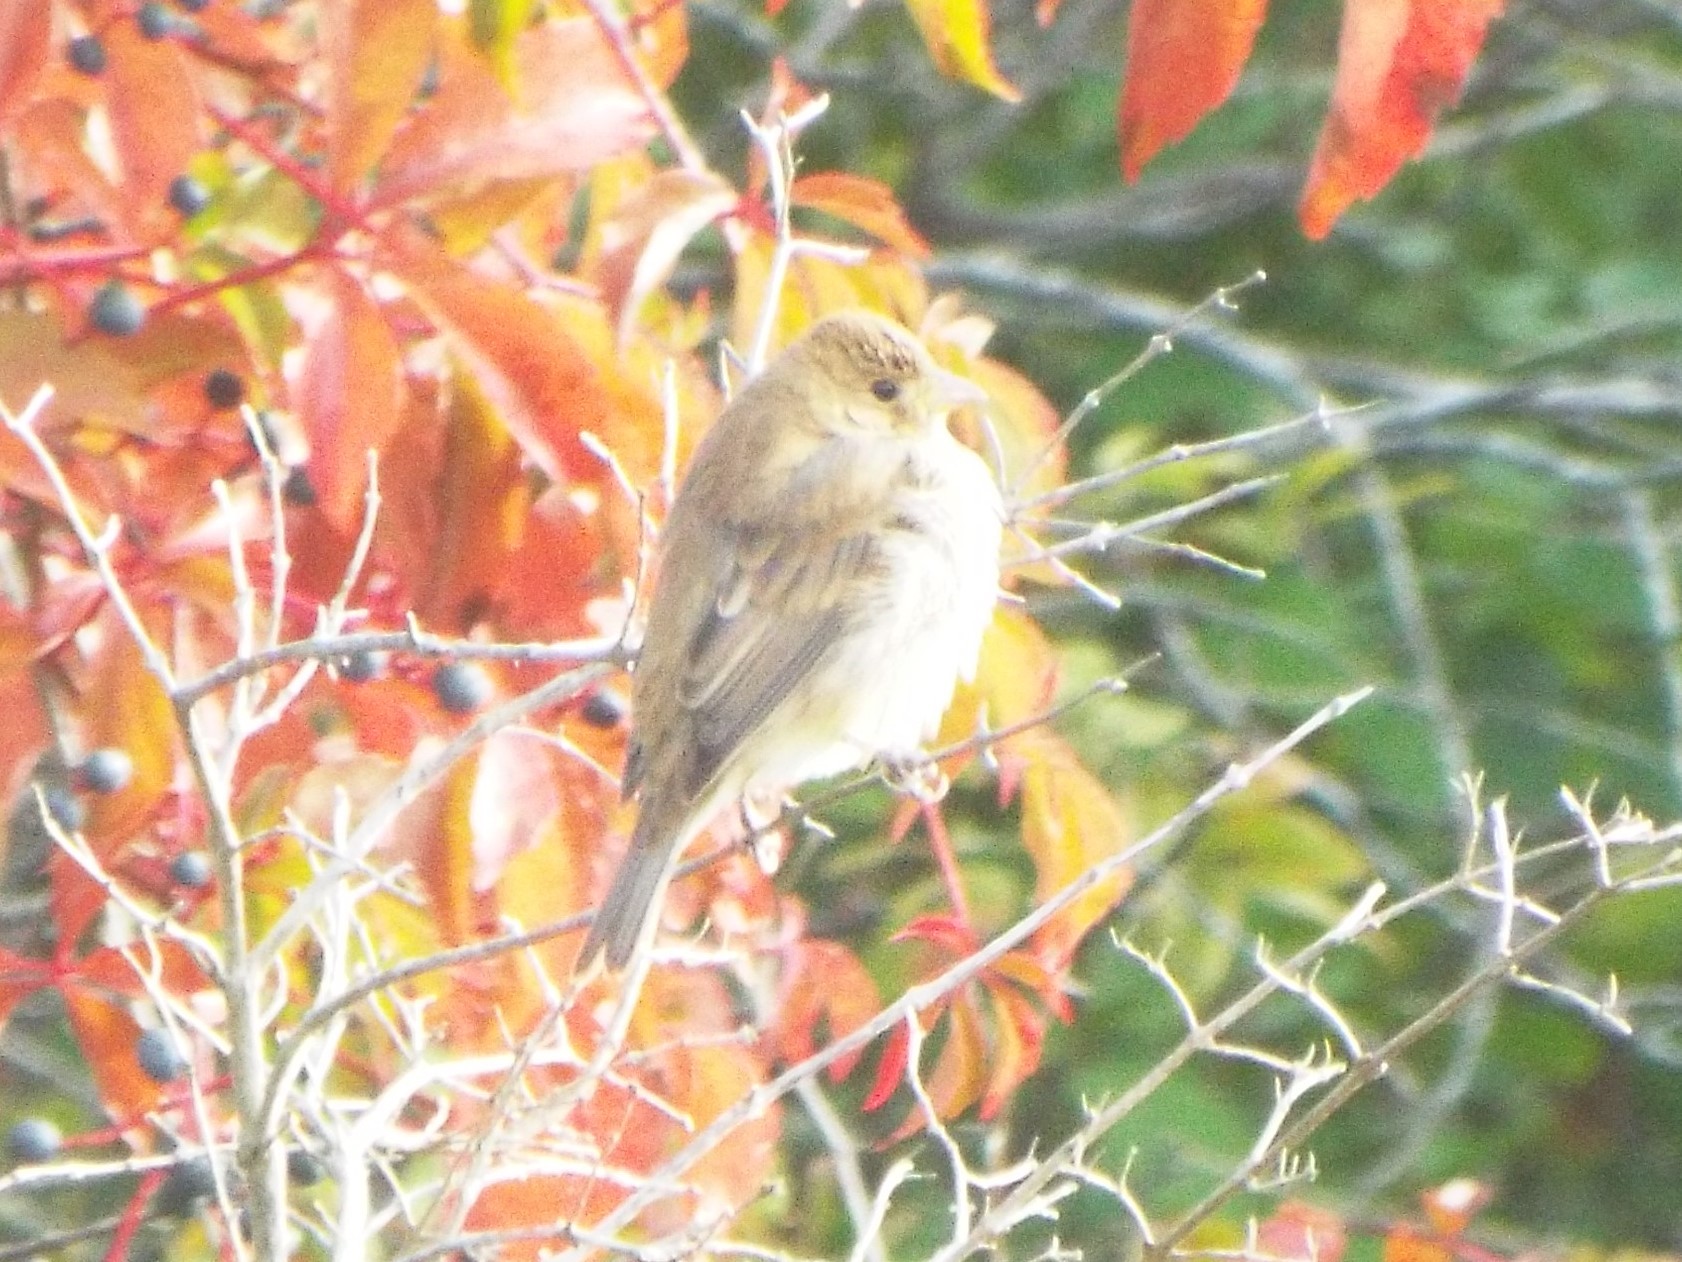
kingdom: Animalia
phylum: Chordata
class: Aves
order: Passeriformes
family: Cardinalidae
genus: Passerina
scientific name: Passerina cyanea
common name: Indigo bunting
